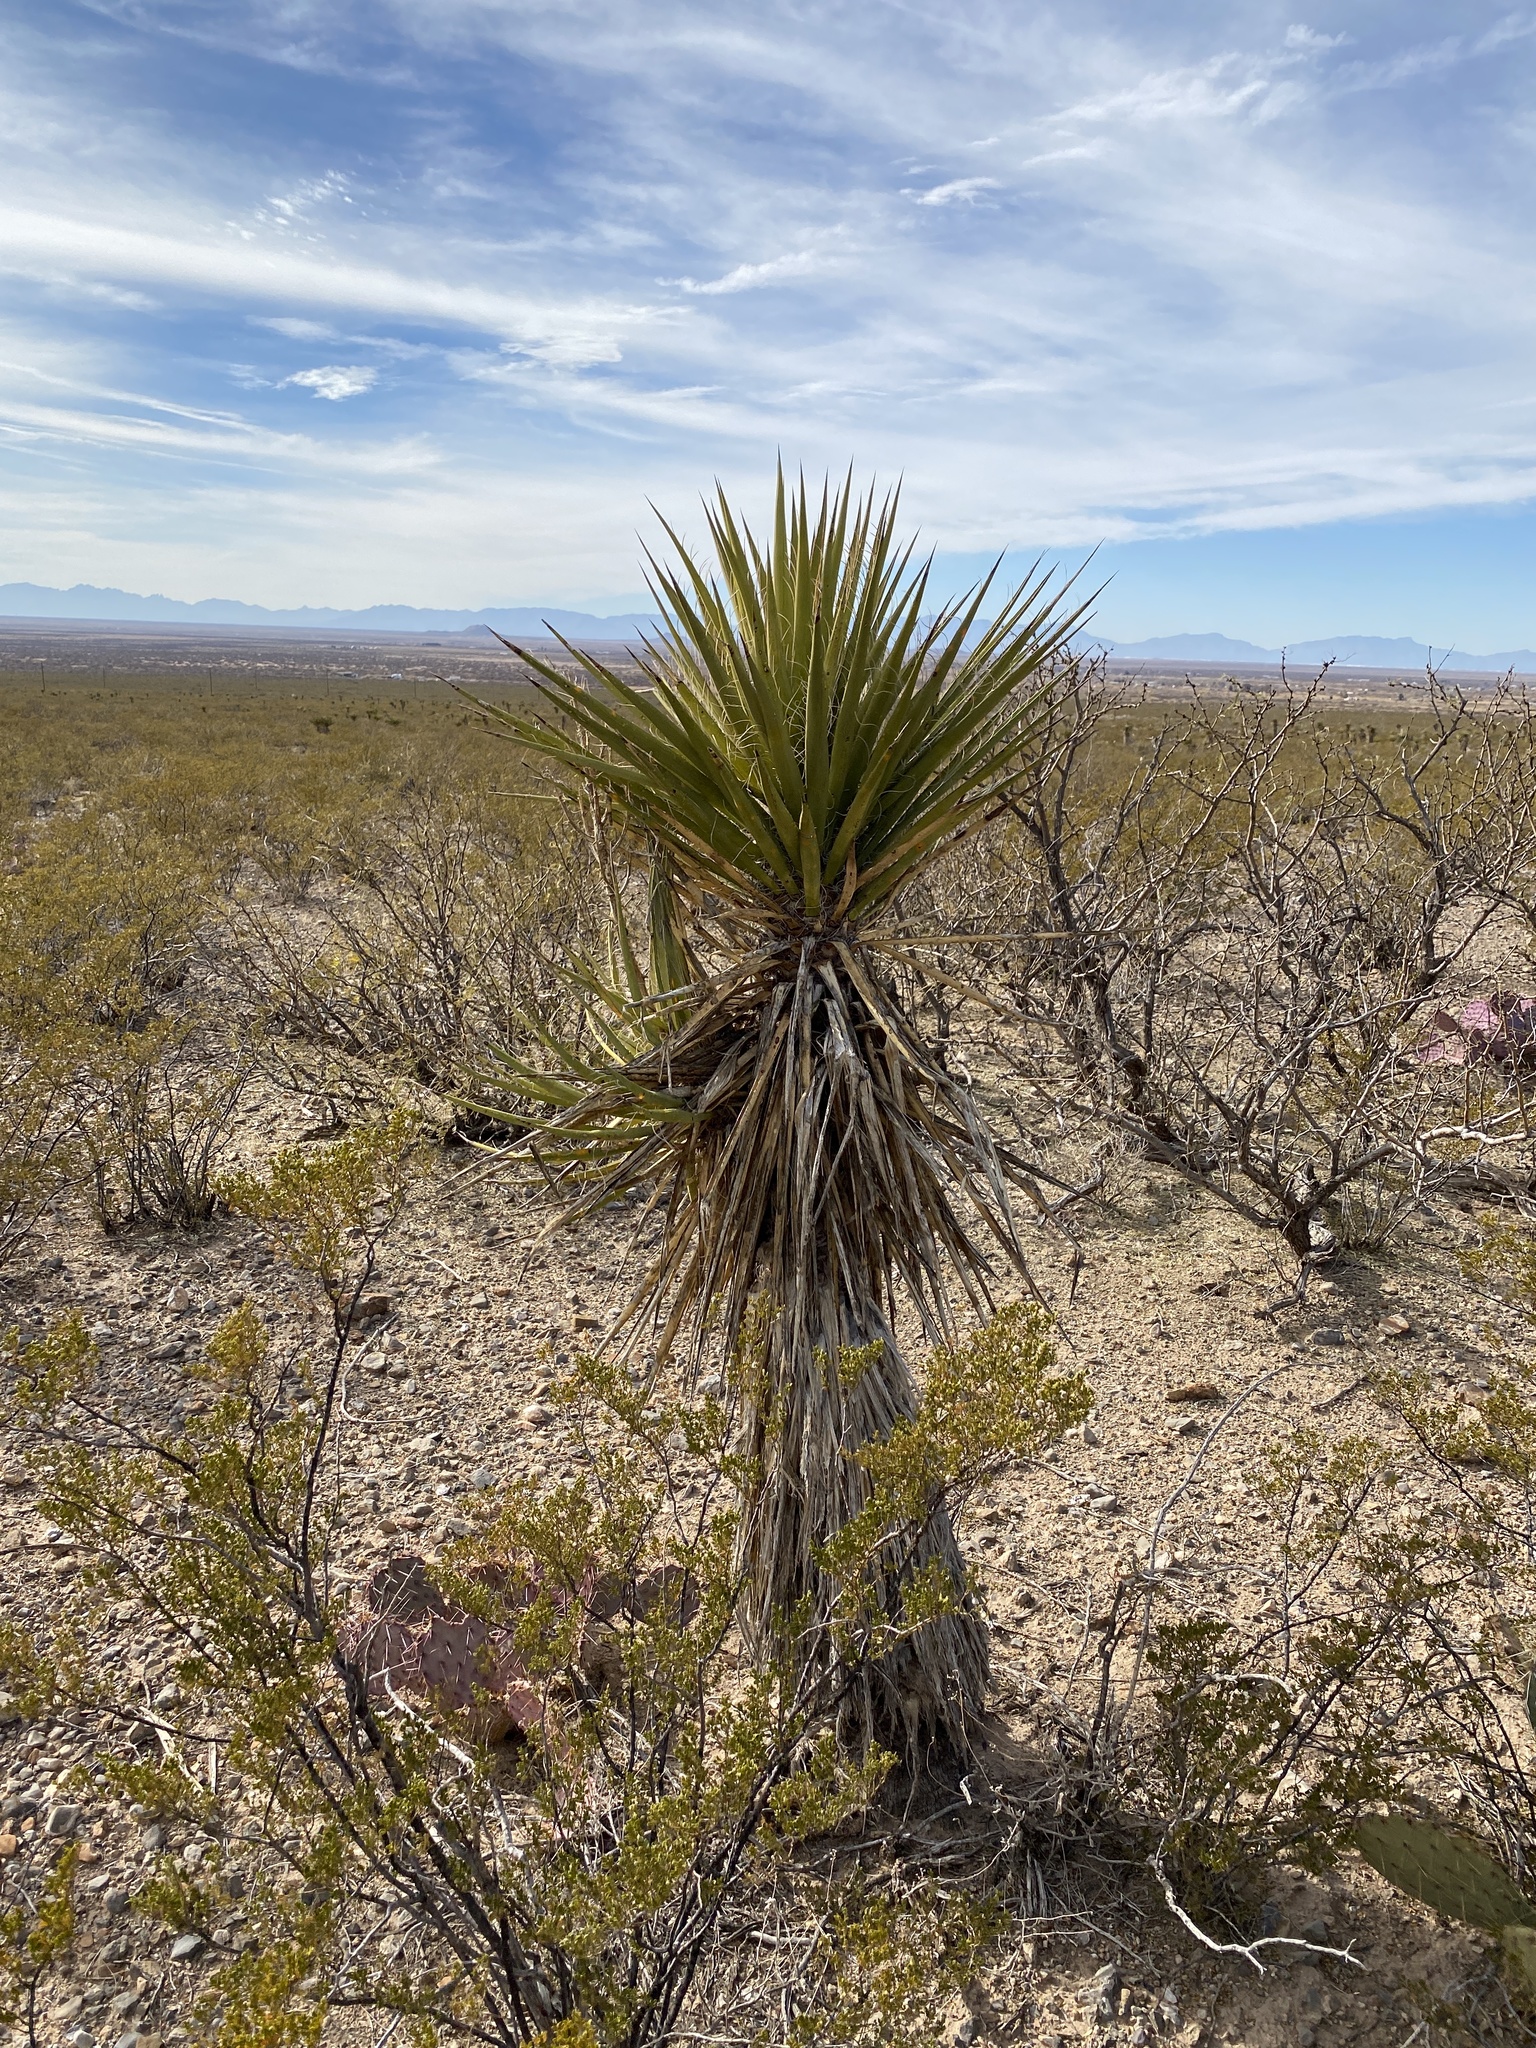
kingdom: Plantae
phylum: Tracheophyta
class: Liliopsida
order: Asparagales
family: Asparagaceae
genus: Yucca
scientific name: Yucca treculiana
